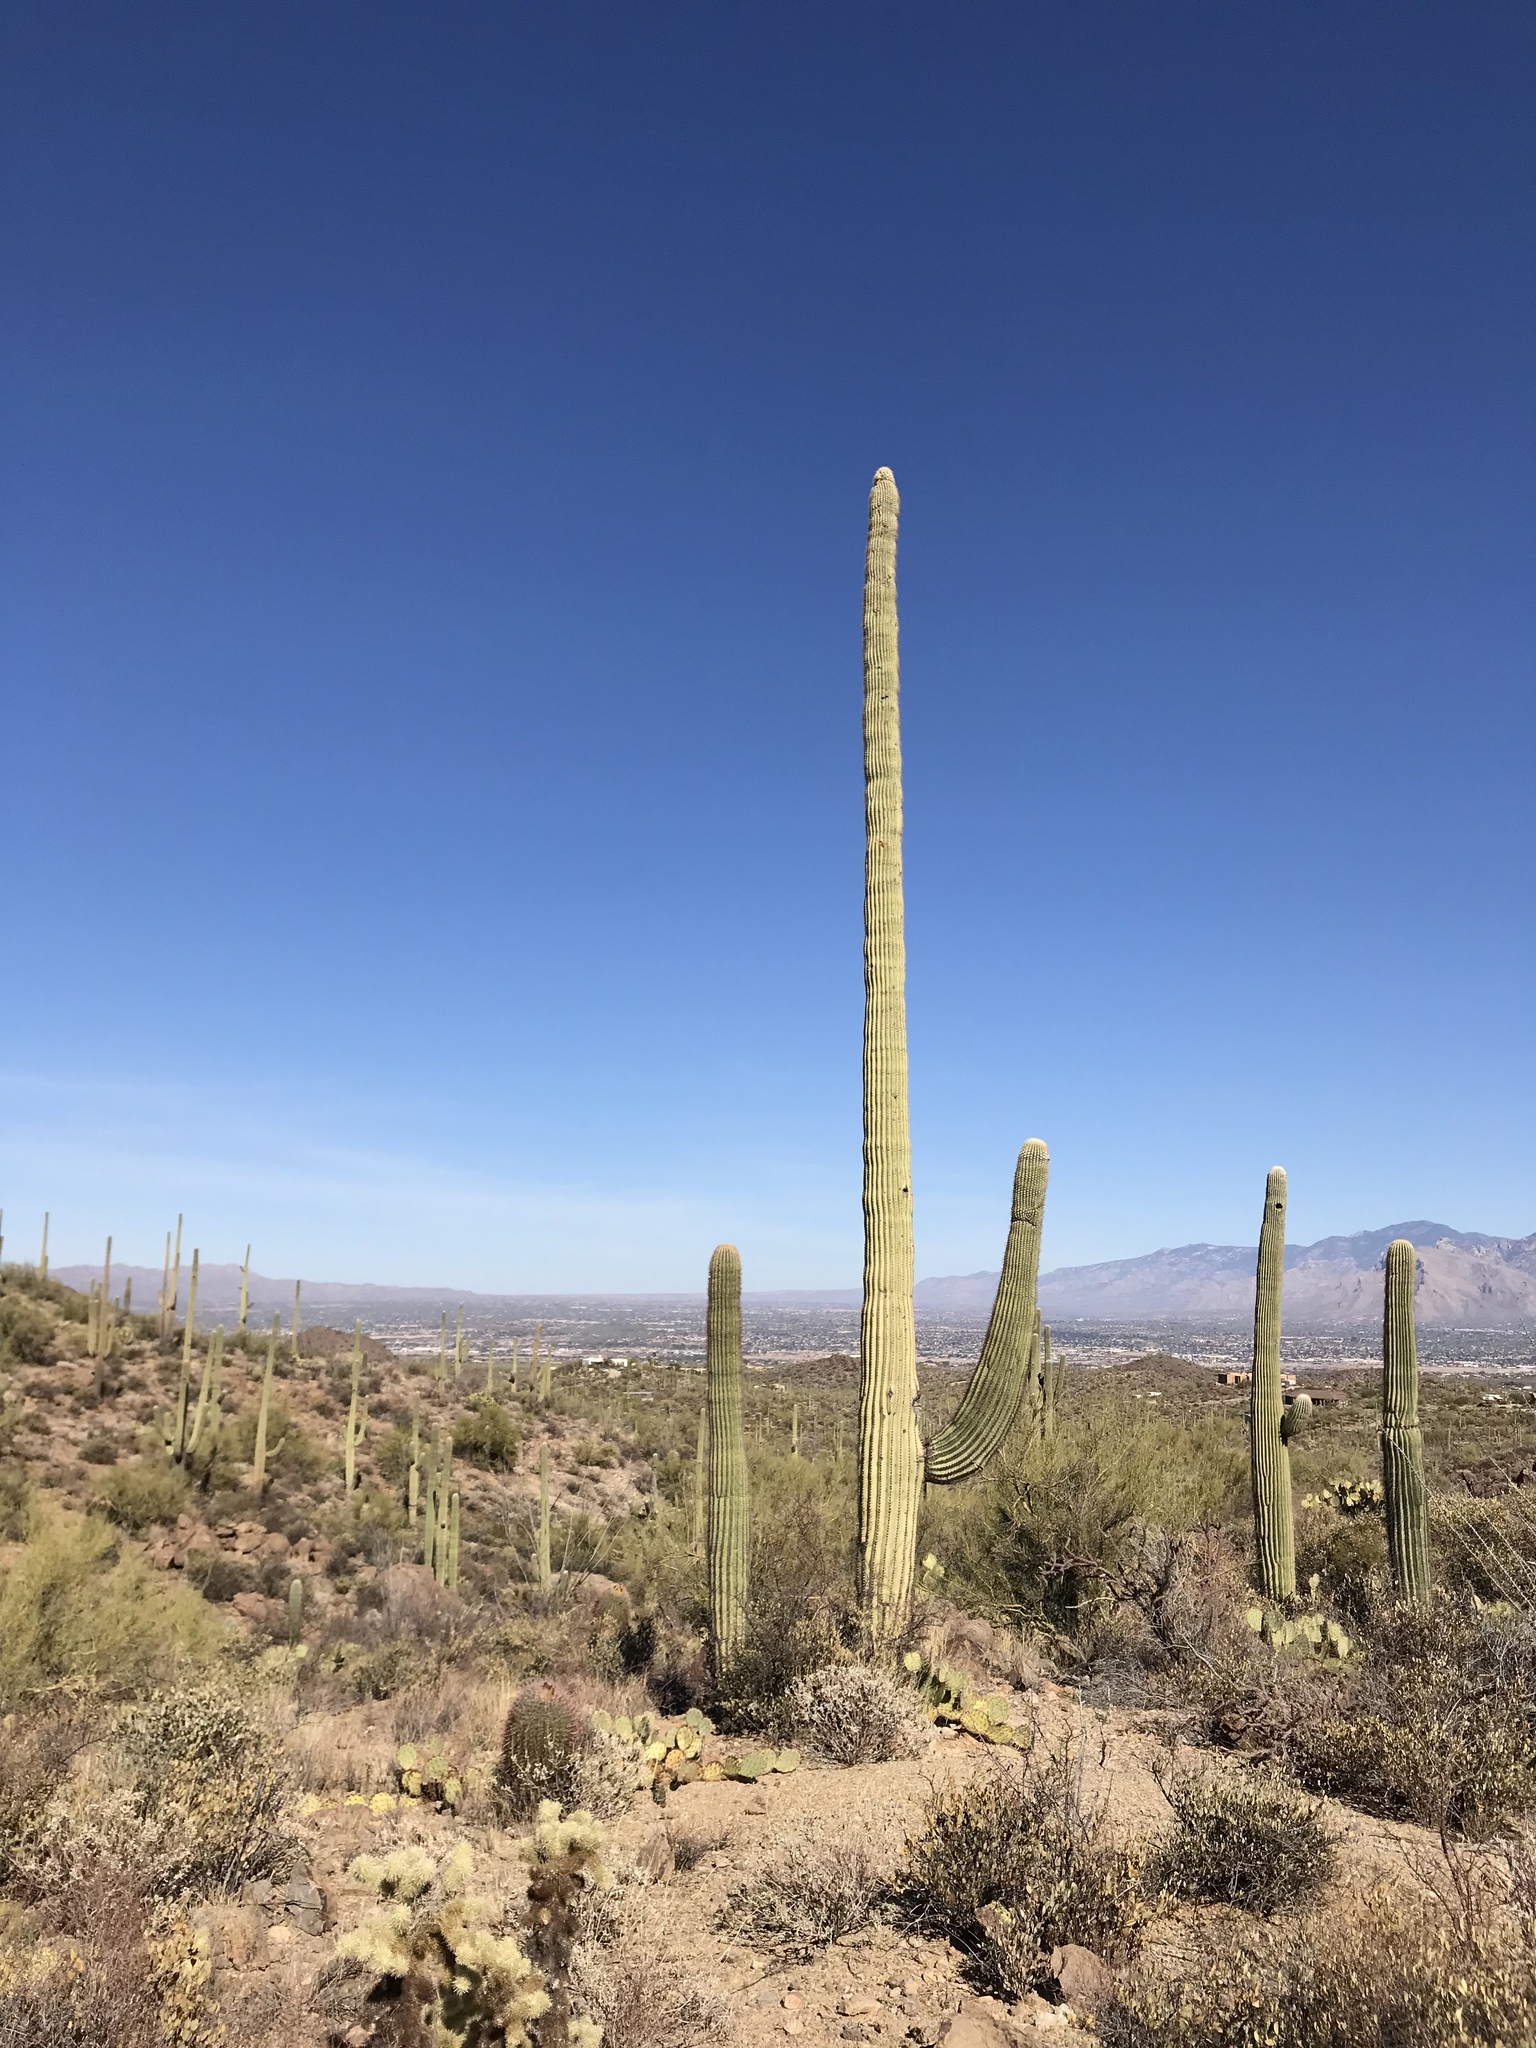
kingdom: Plantae
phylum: Tracheophyta
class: Magnoliopsida
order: Caryophyllales
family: Cactaceae
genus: Carnegiea
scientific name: Carnegiea gigantea
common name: Saguaro
